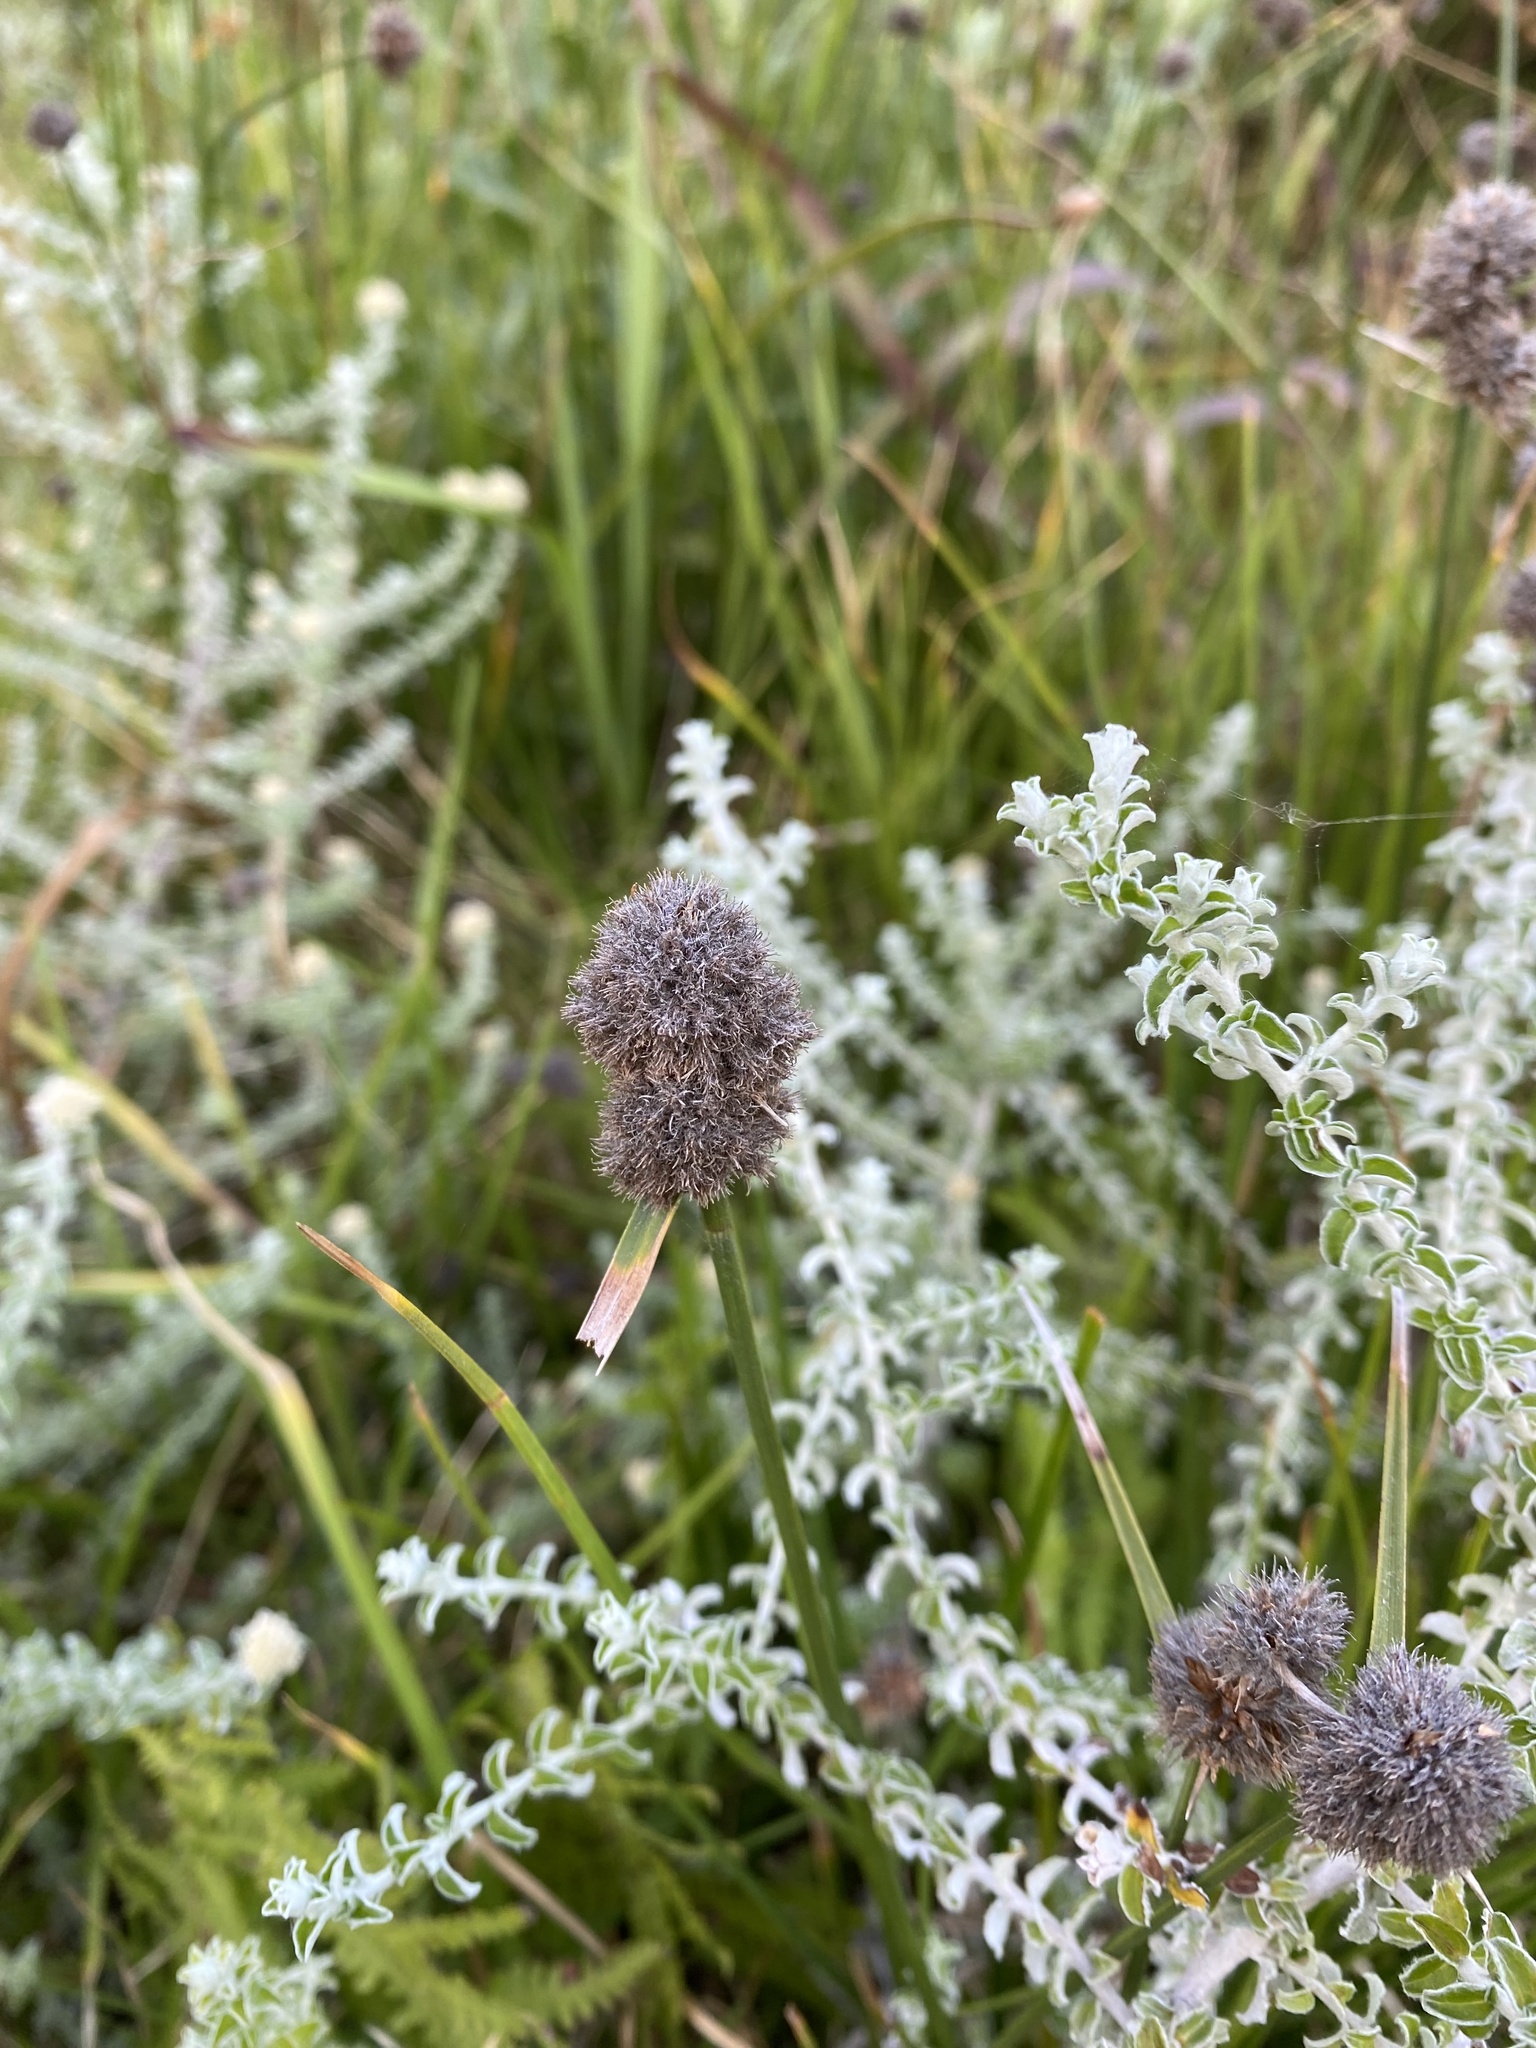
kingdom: Plantae
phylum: Tracheophyta
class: Liliopsida
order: Poales
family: Cyperaceae
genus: Fuirena
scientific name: Fuirena hirsuta
